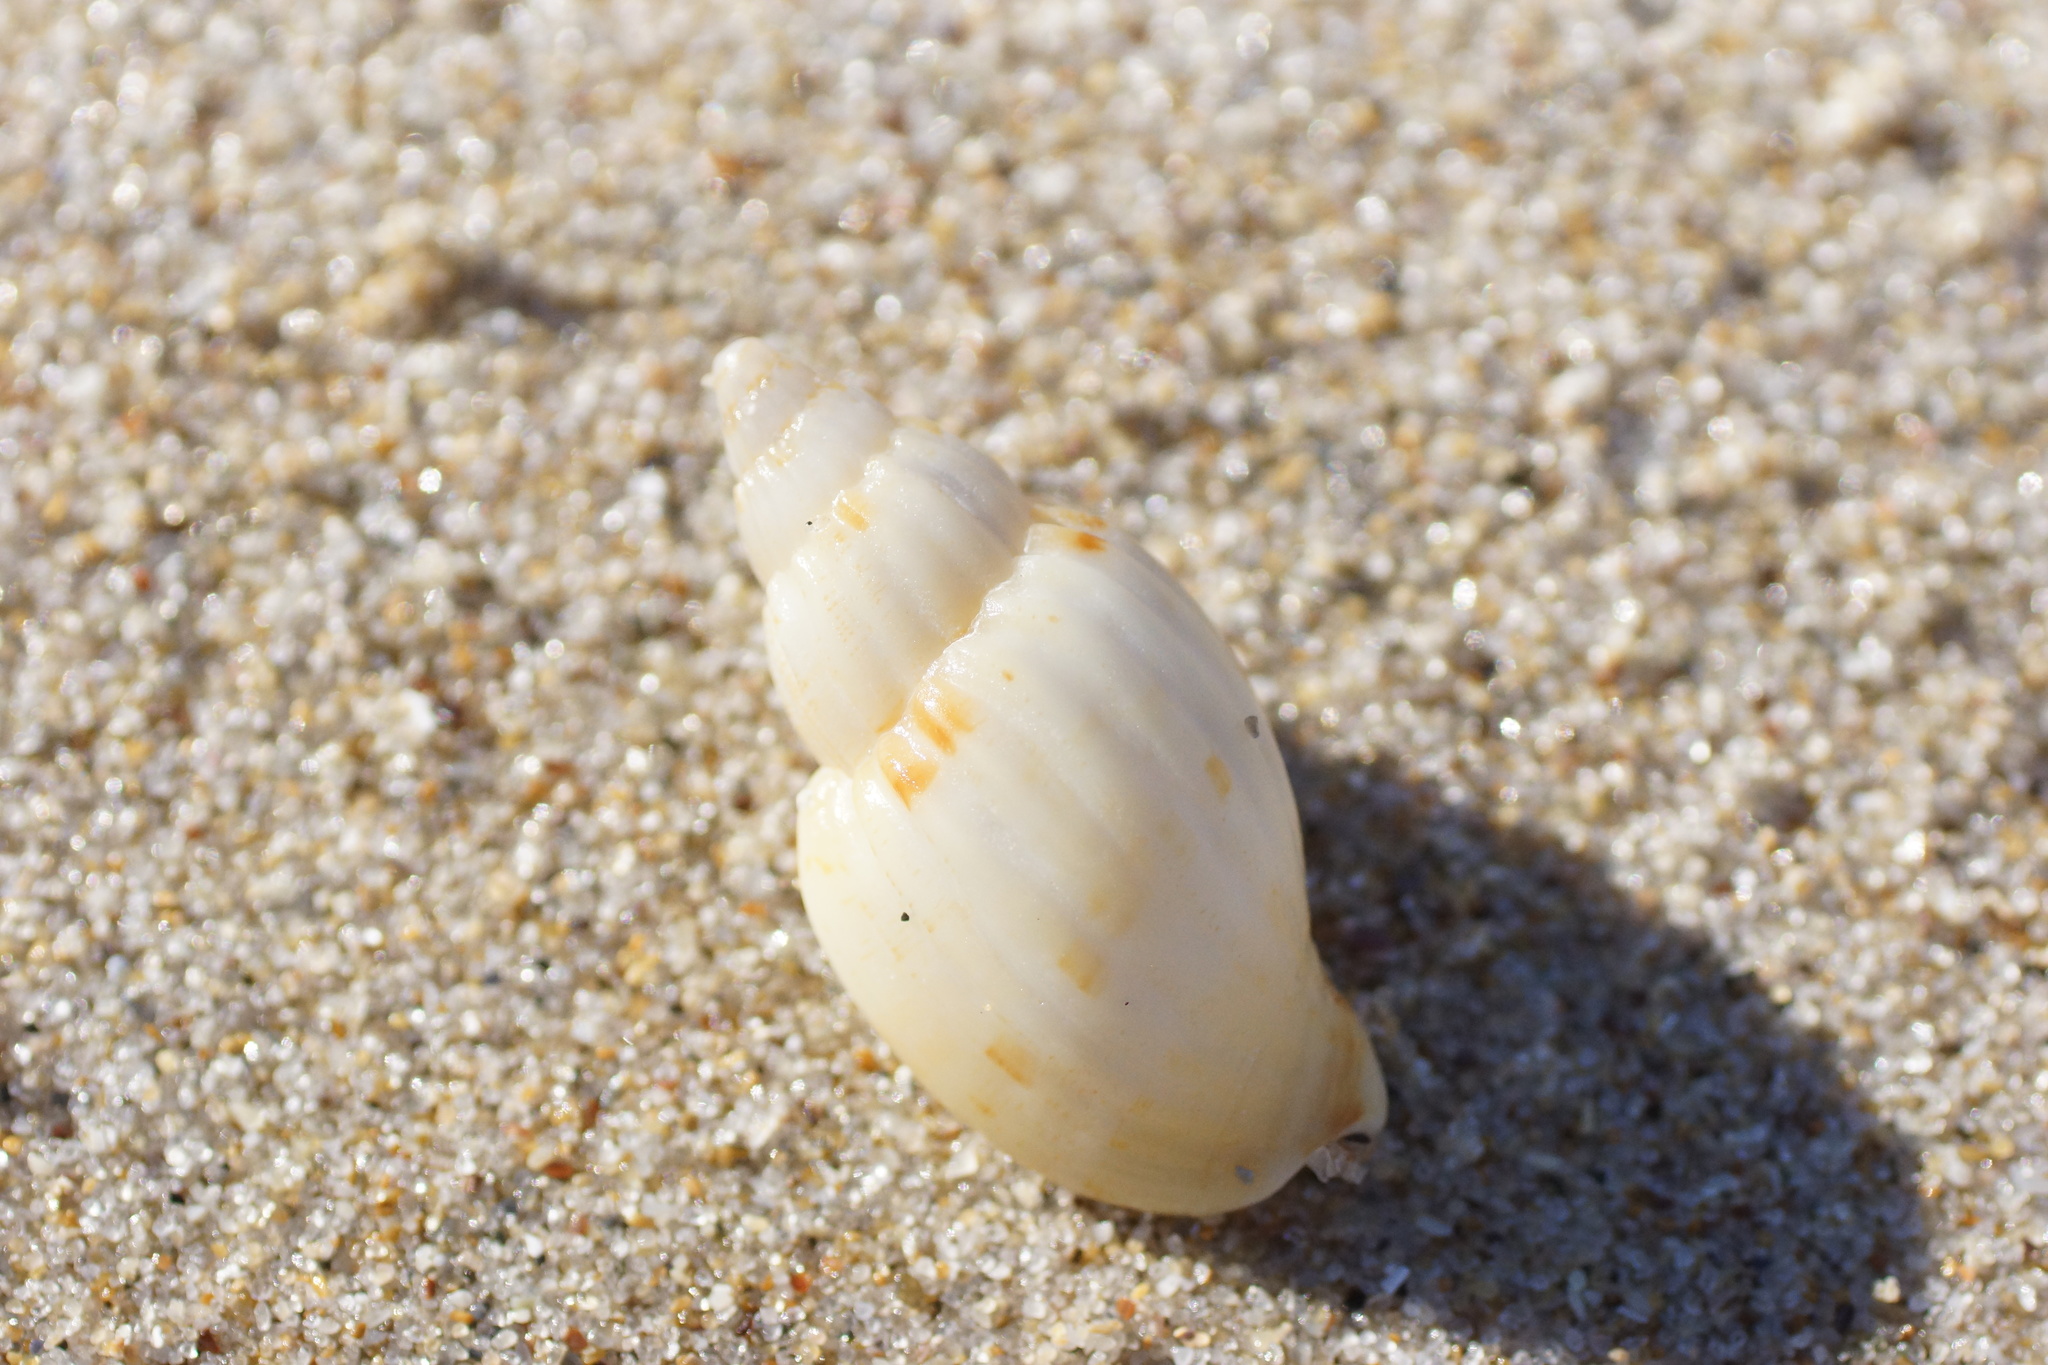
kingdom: Animalia
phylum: Mollusca
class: Gastropoda
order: Neogastropoda
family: Volutidae
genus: Lyria
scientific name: Lyria mitraeformis
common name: Miter-shaped lyria
